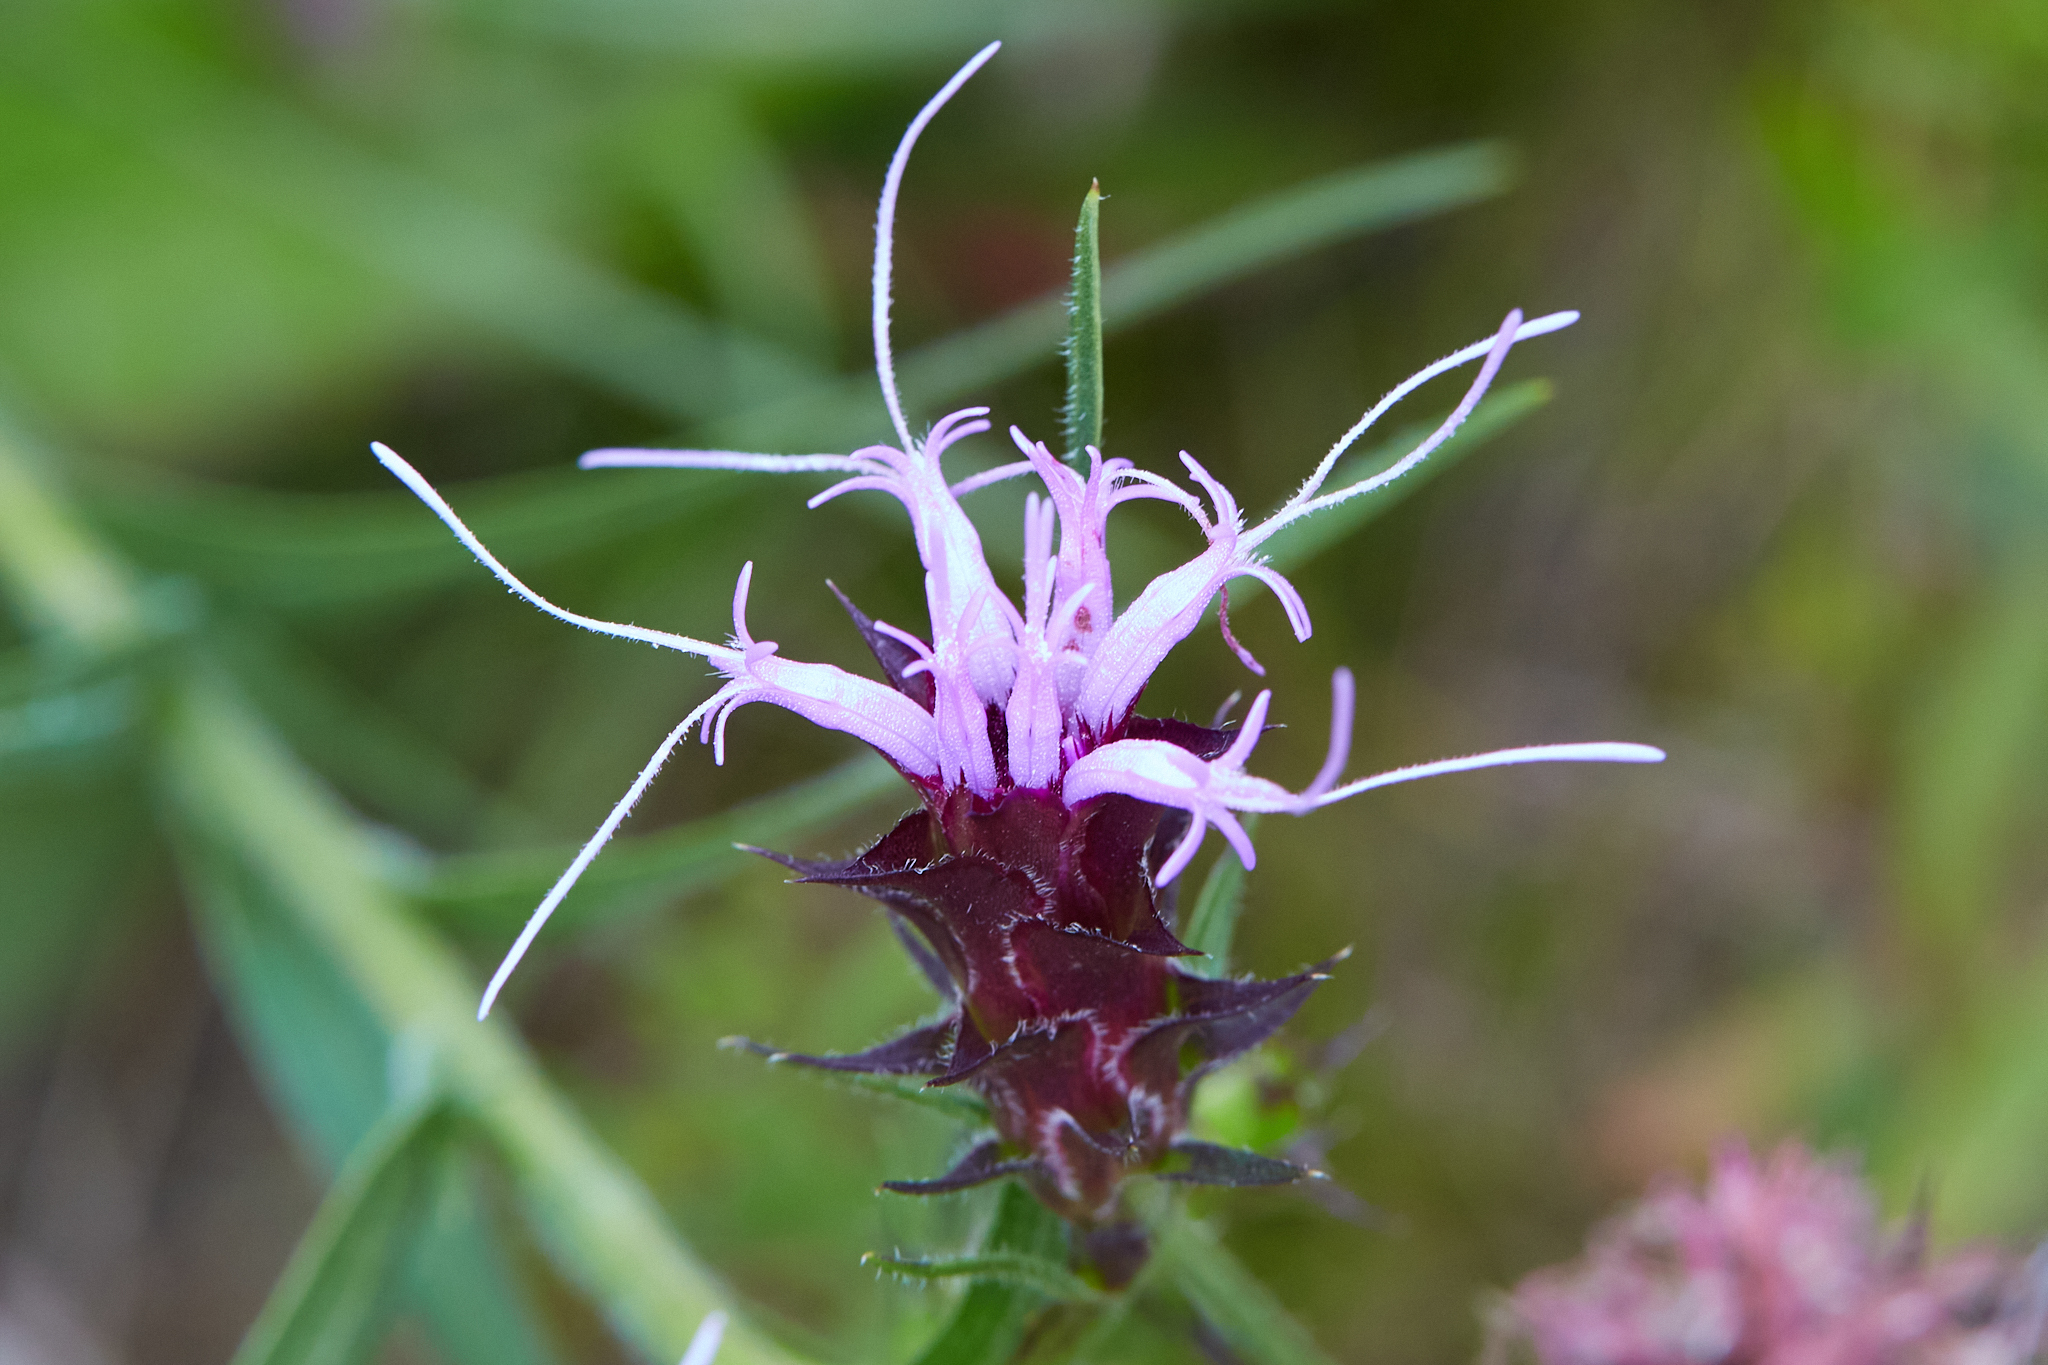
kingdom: Plantae
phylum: Tracheophyta
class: Magnoliopsida
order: Asterales
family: Asteraceae
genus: Liatris
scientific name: Liatris squarrosa
